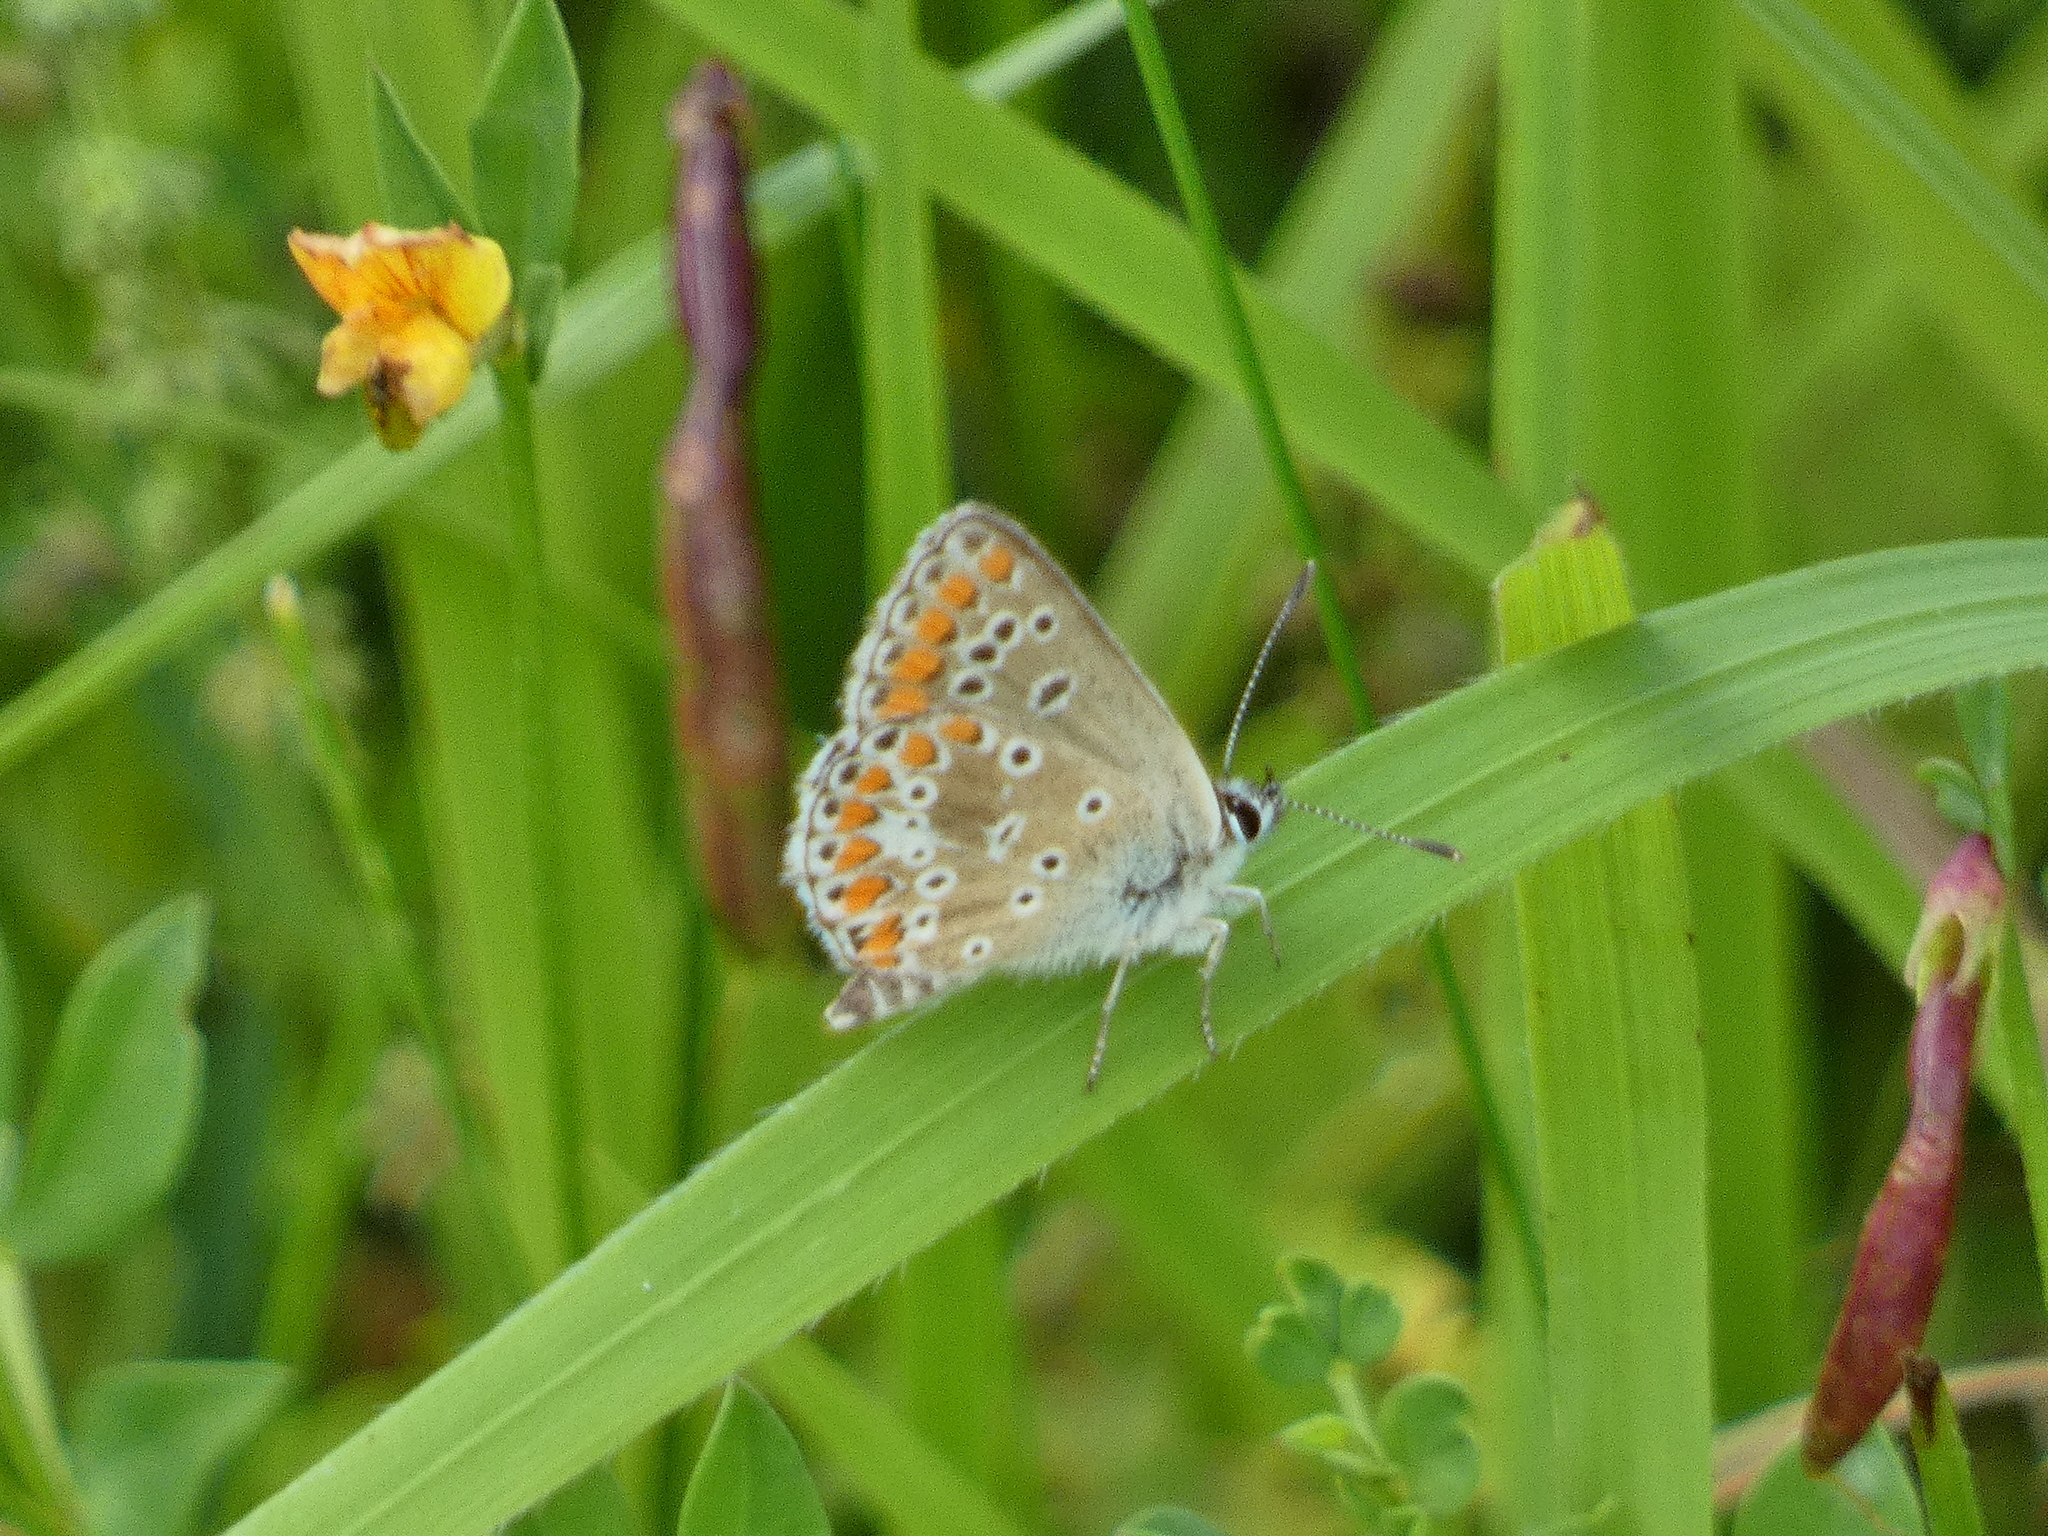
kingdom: Animalia
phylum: Arthropoda
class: Insecta
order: Lepidoptera
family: Lycaenidae
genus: Aricia
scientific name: Aricia agestis
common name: Brown argus
